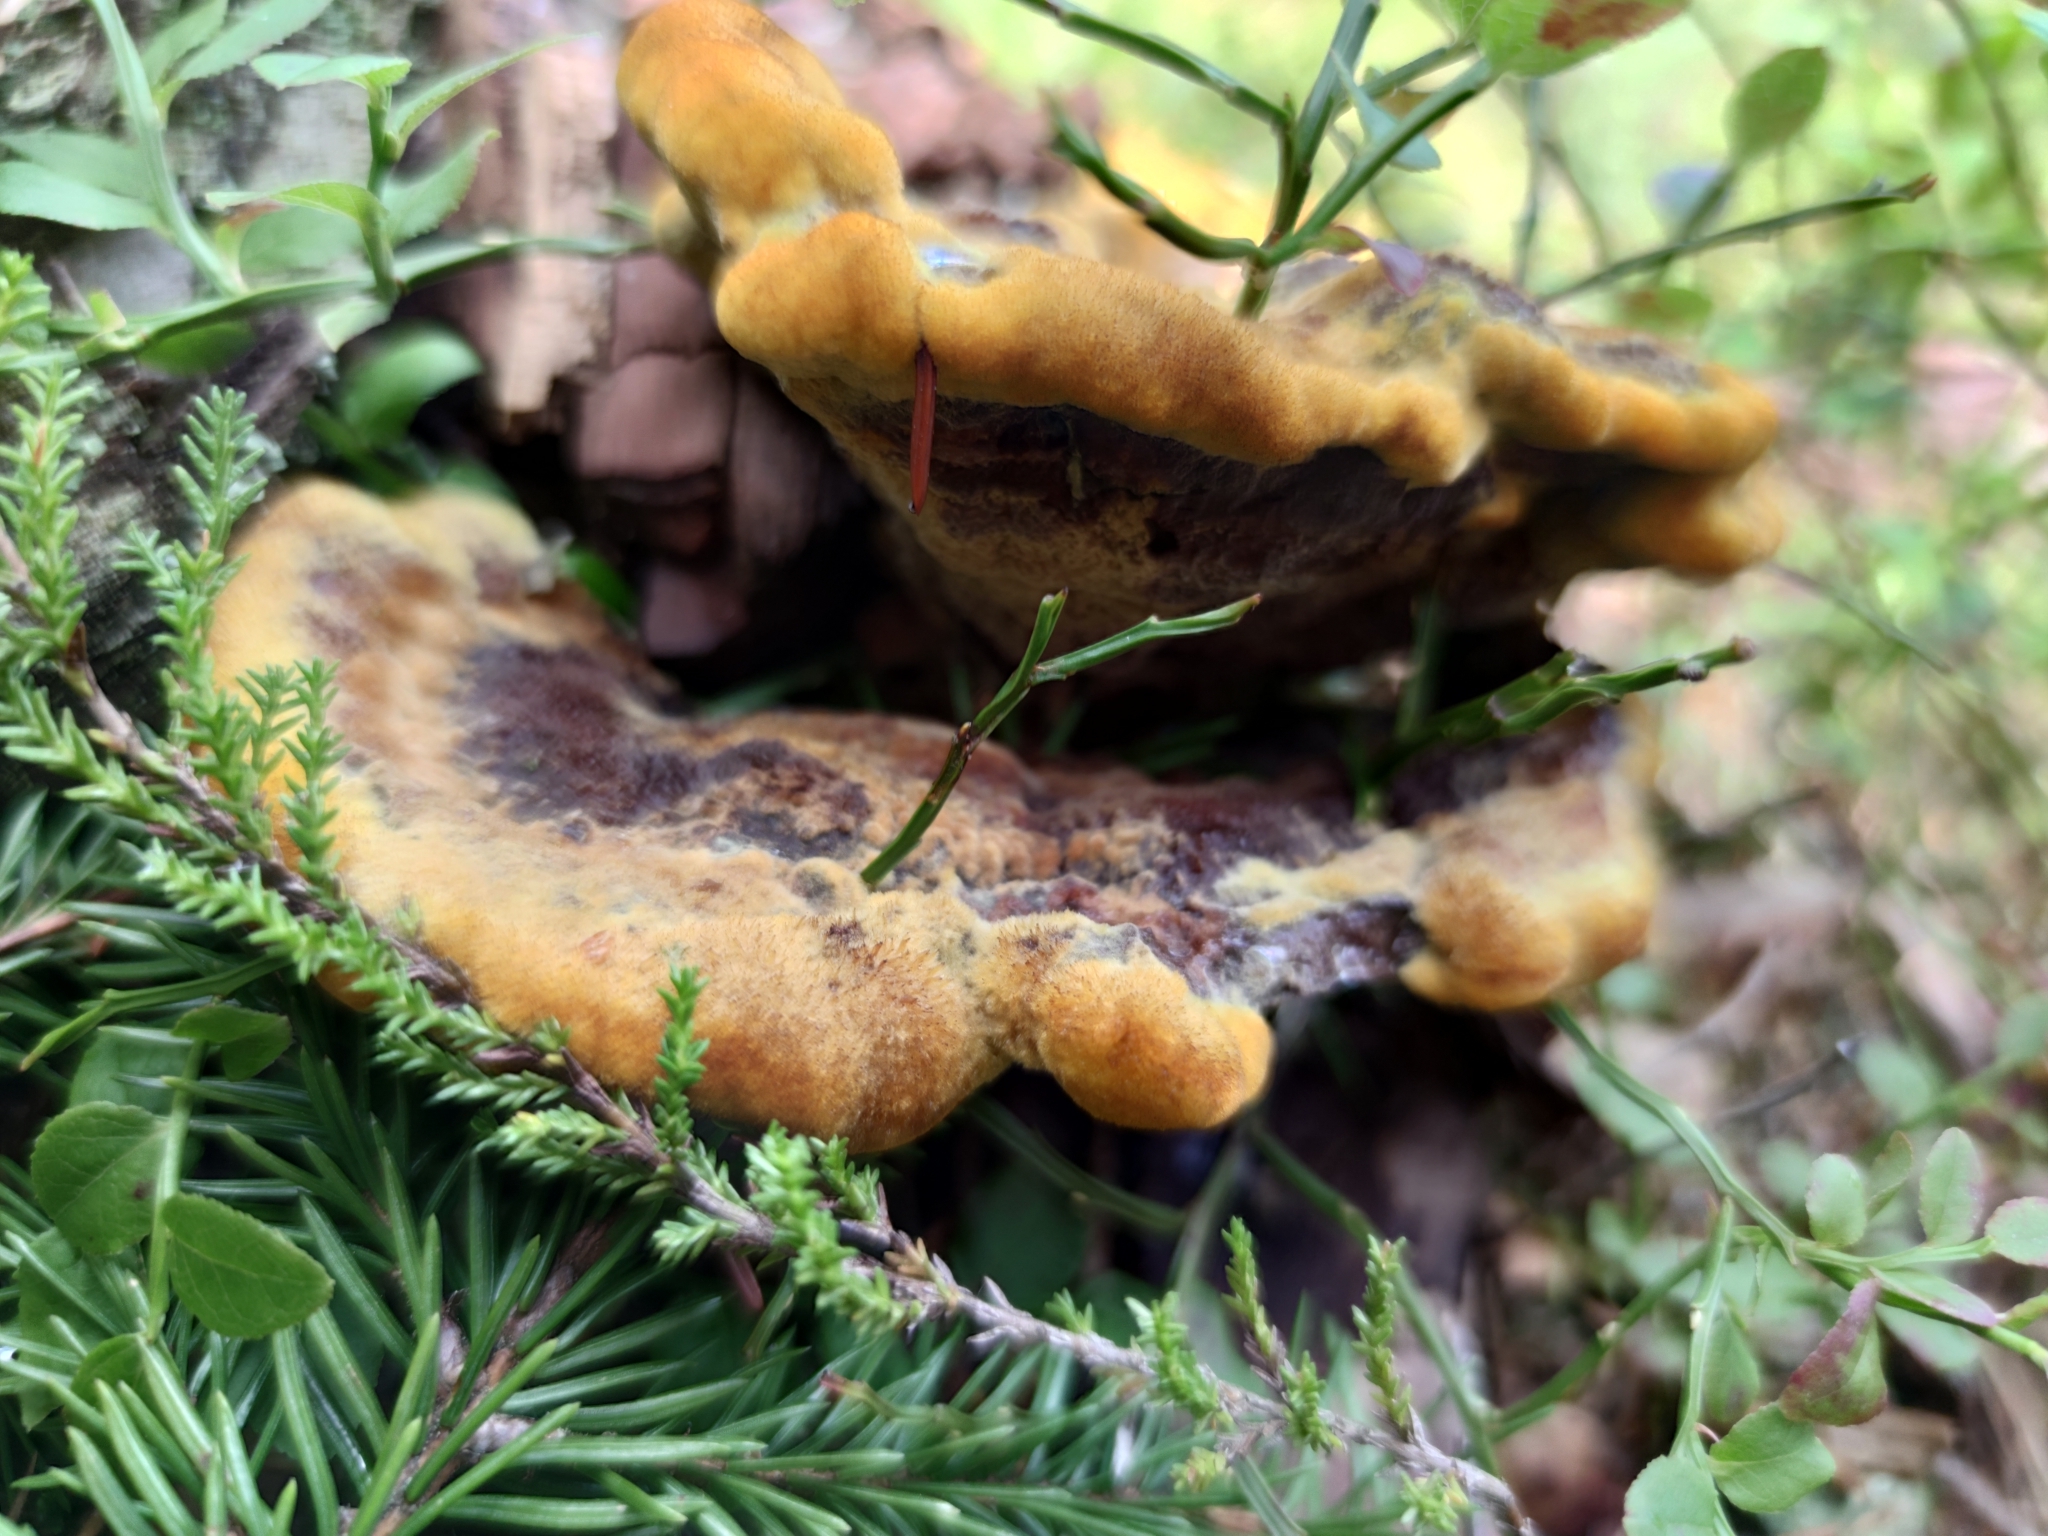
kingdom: Fungi
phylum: Basidiomycota
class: Agaricomycetes
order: Polyporales
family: Laetiporaceae
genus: Phaeolus
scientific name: Phaeolus schweinitzii
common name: Dyer's mazegill
